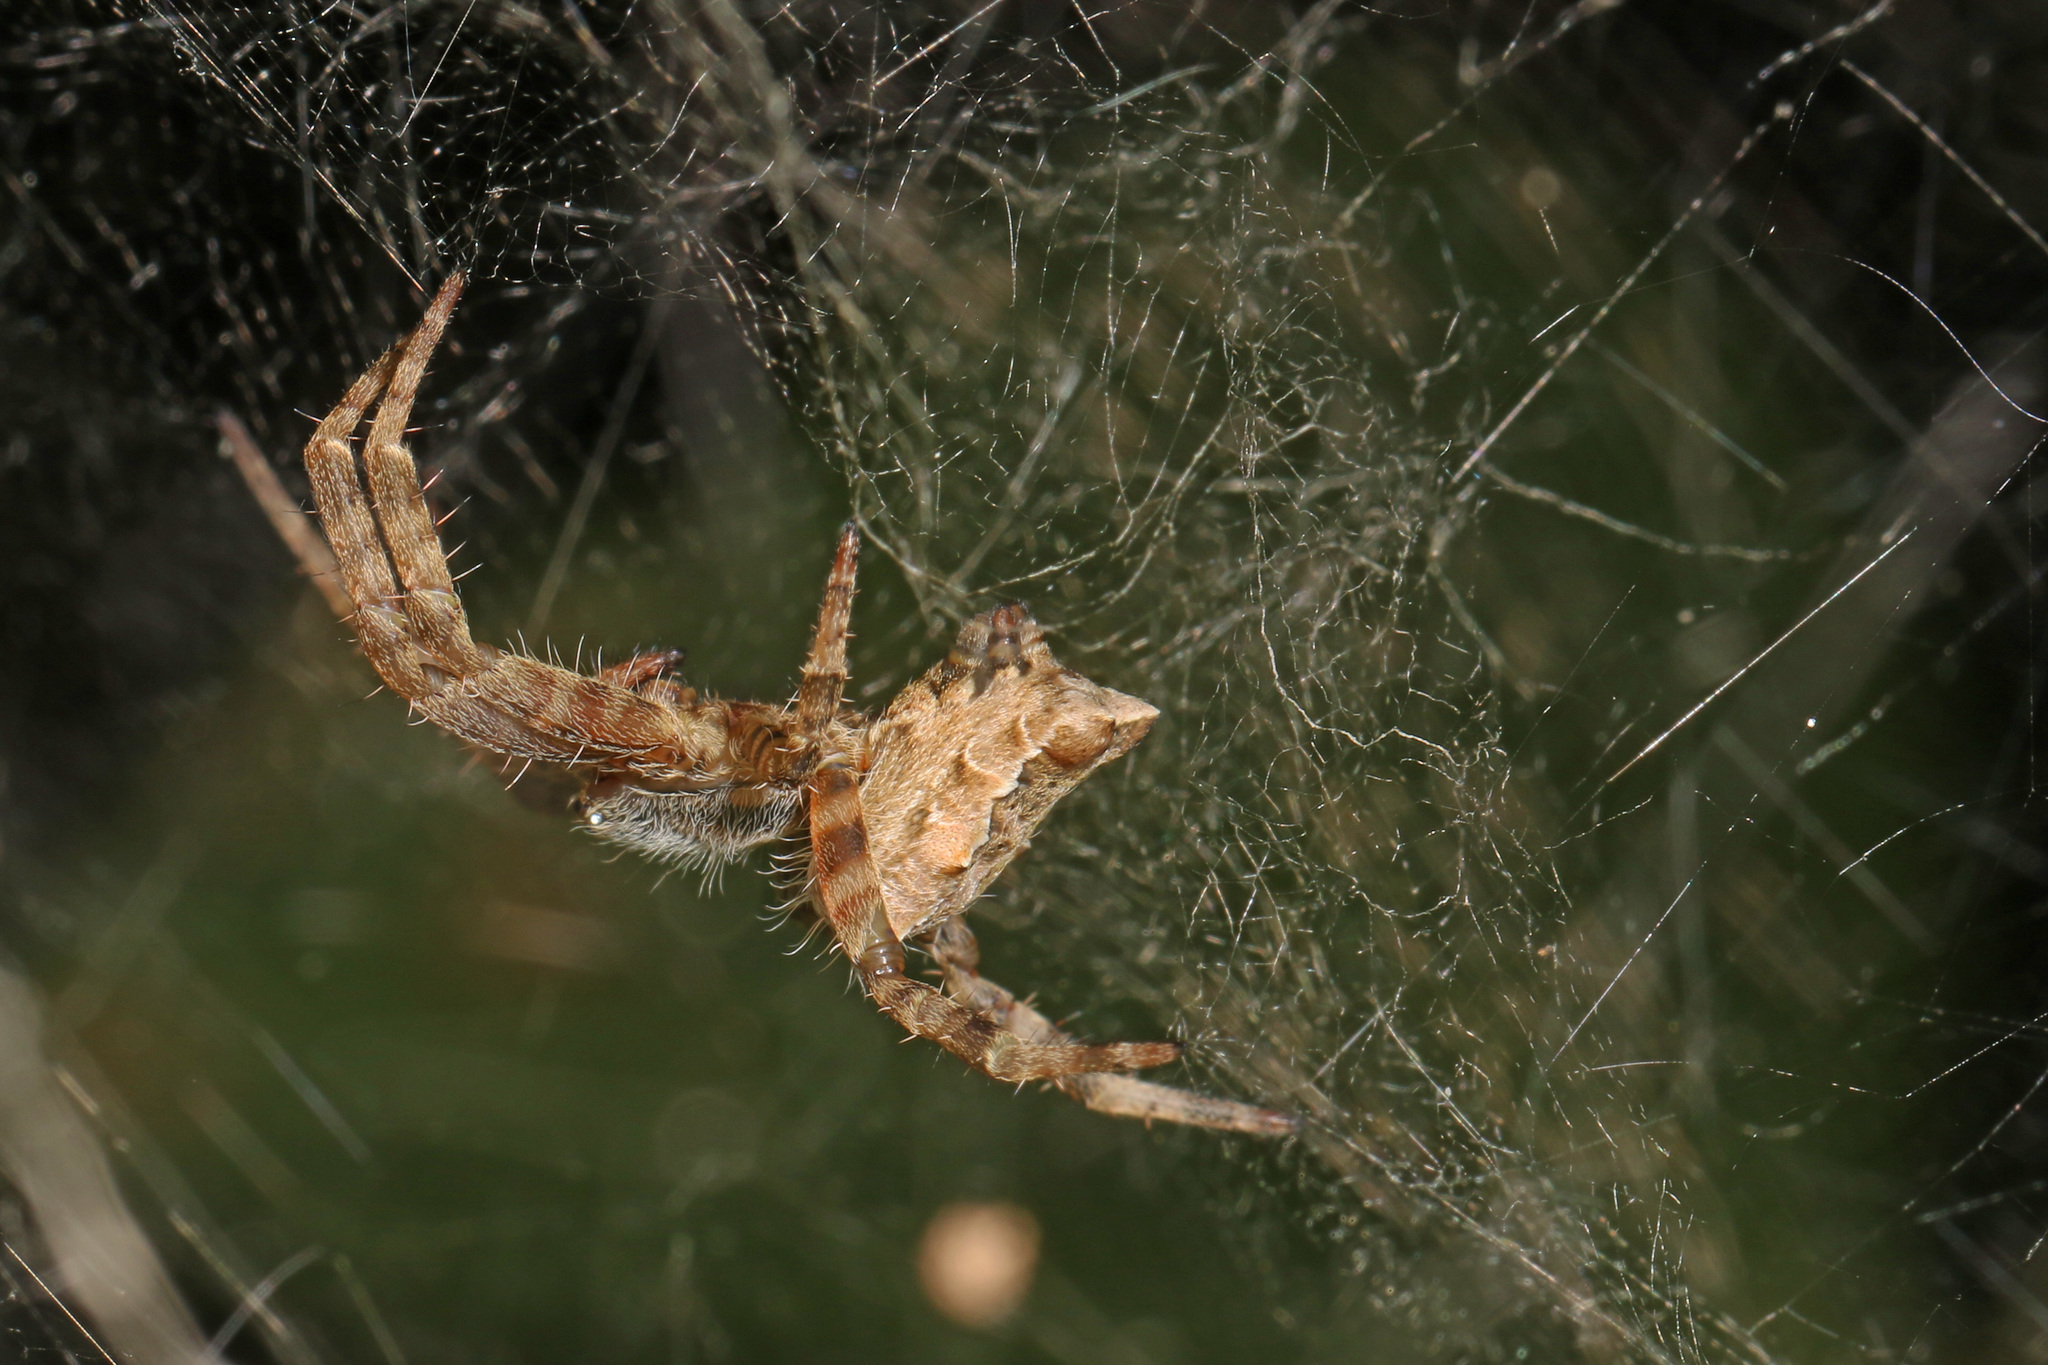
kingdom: Animalia
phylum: Arthropoda
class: Arachnida
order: Araneae
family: Araneidae
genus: Cyrtophora
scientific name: Cyrtophora citricola
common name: Orb weavers
